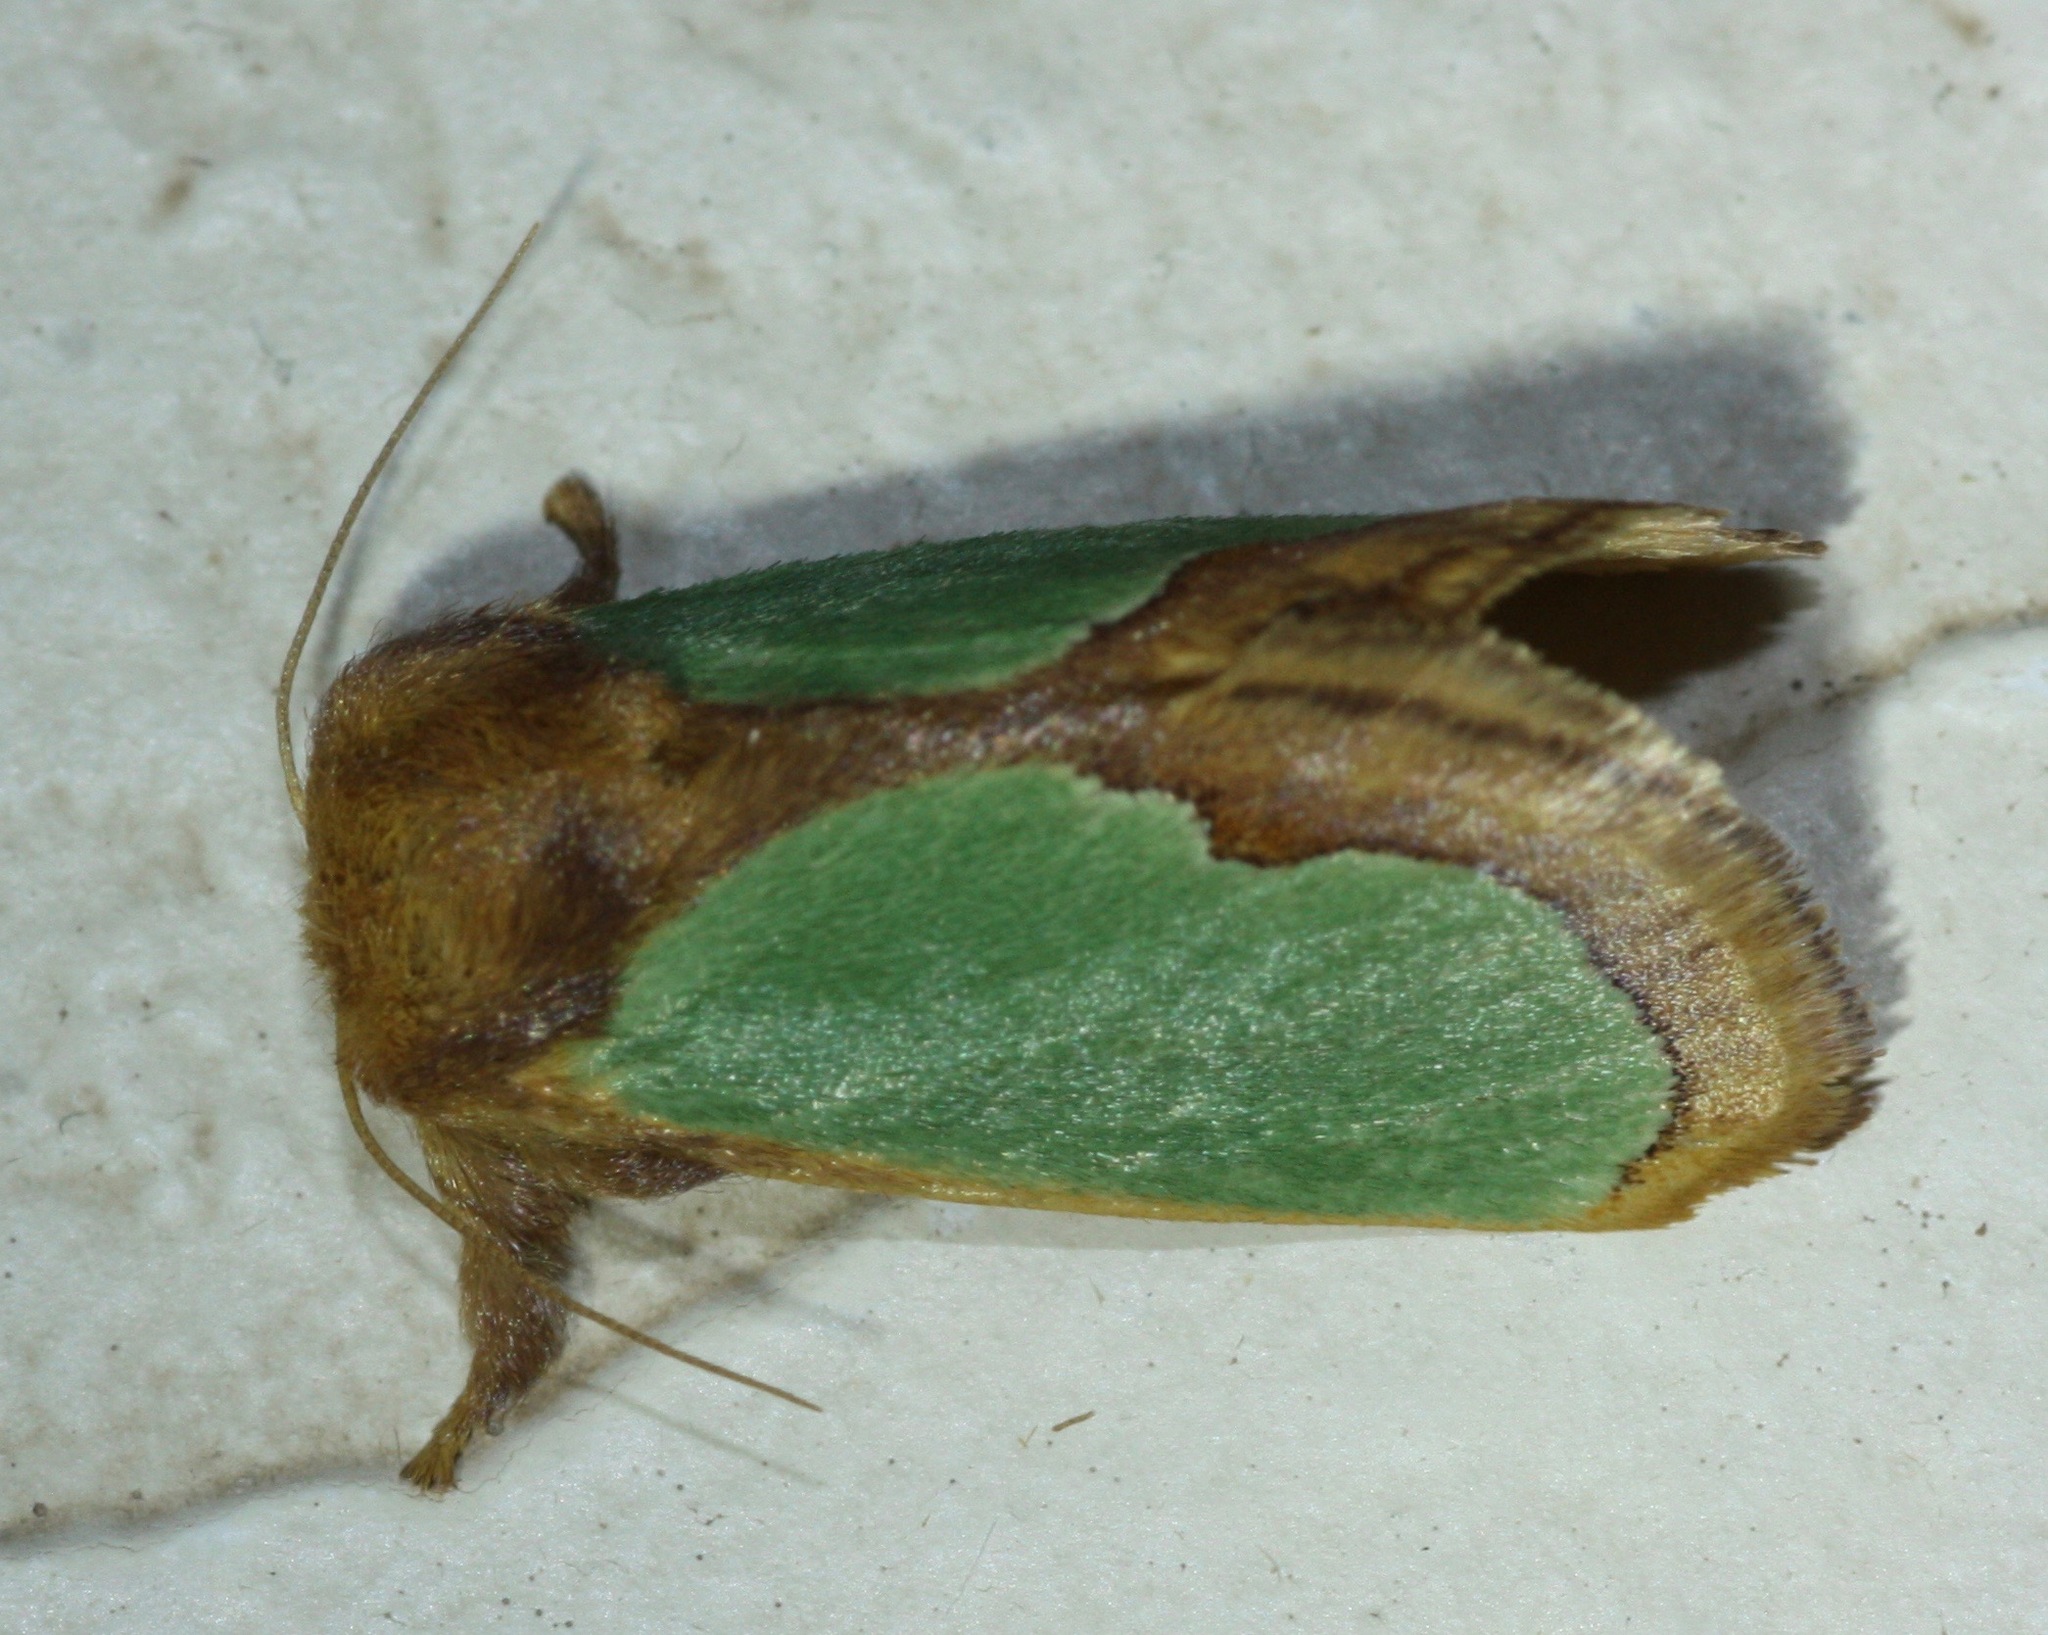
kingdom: Animalia
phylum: Arthropoda
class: Insecta
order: Lepidoptera
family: Limacodidae
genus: Euclea
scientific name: Euclea incisa
